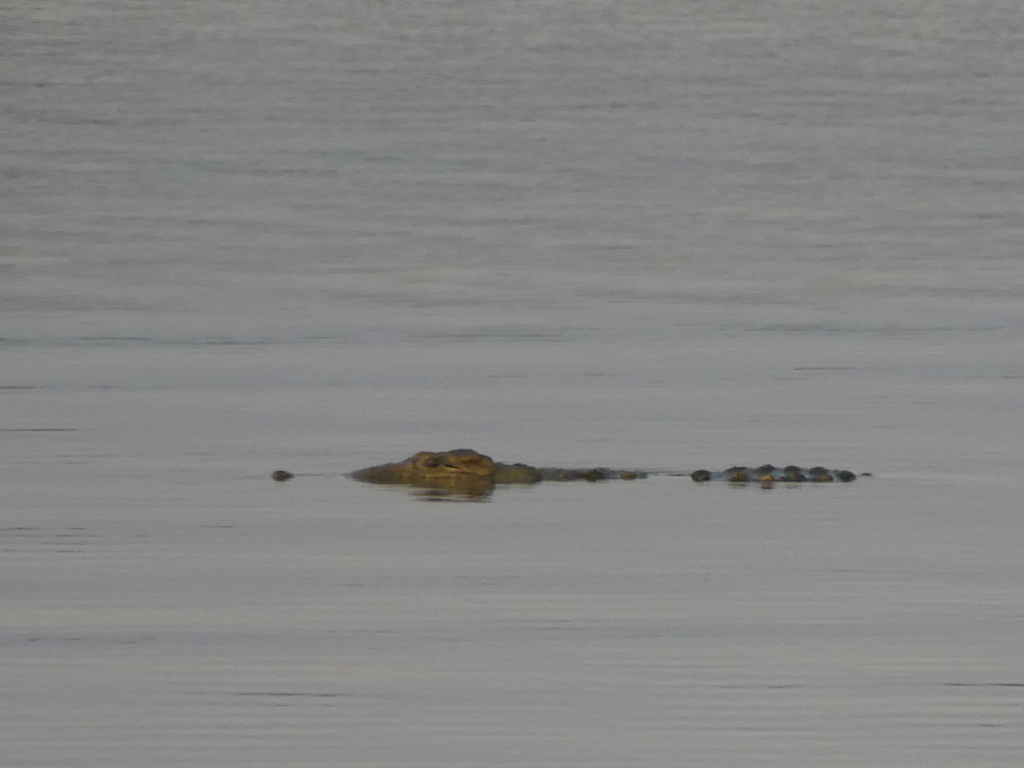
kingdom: Animalia
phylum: Chordata
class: Crocodylia
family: Crocodylidae
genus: Crocodylus
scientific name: Crocodylus niloticus
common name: Nile crocodile
